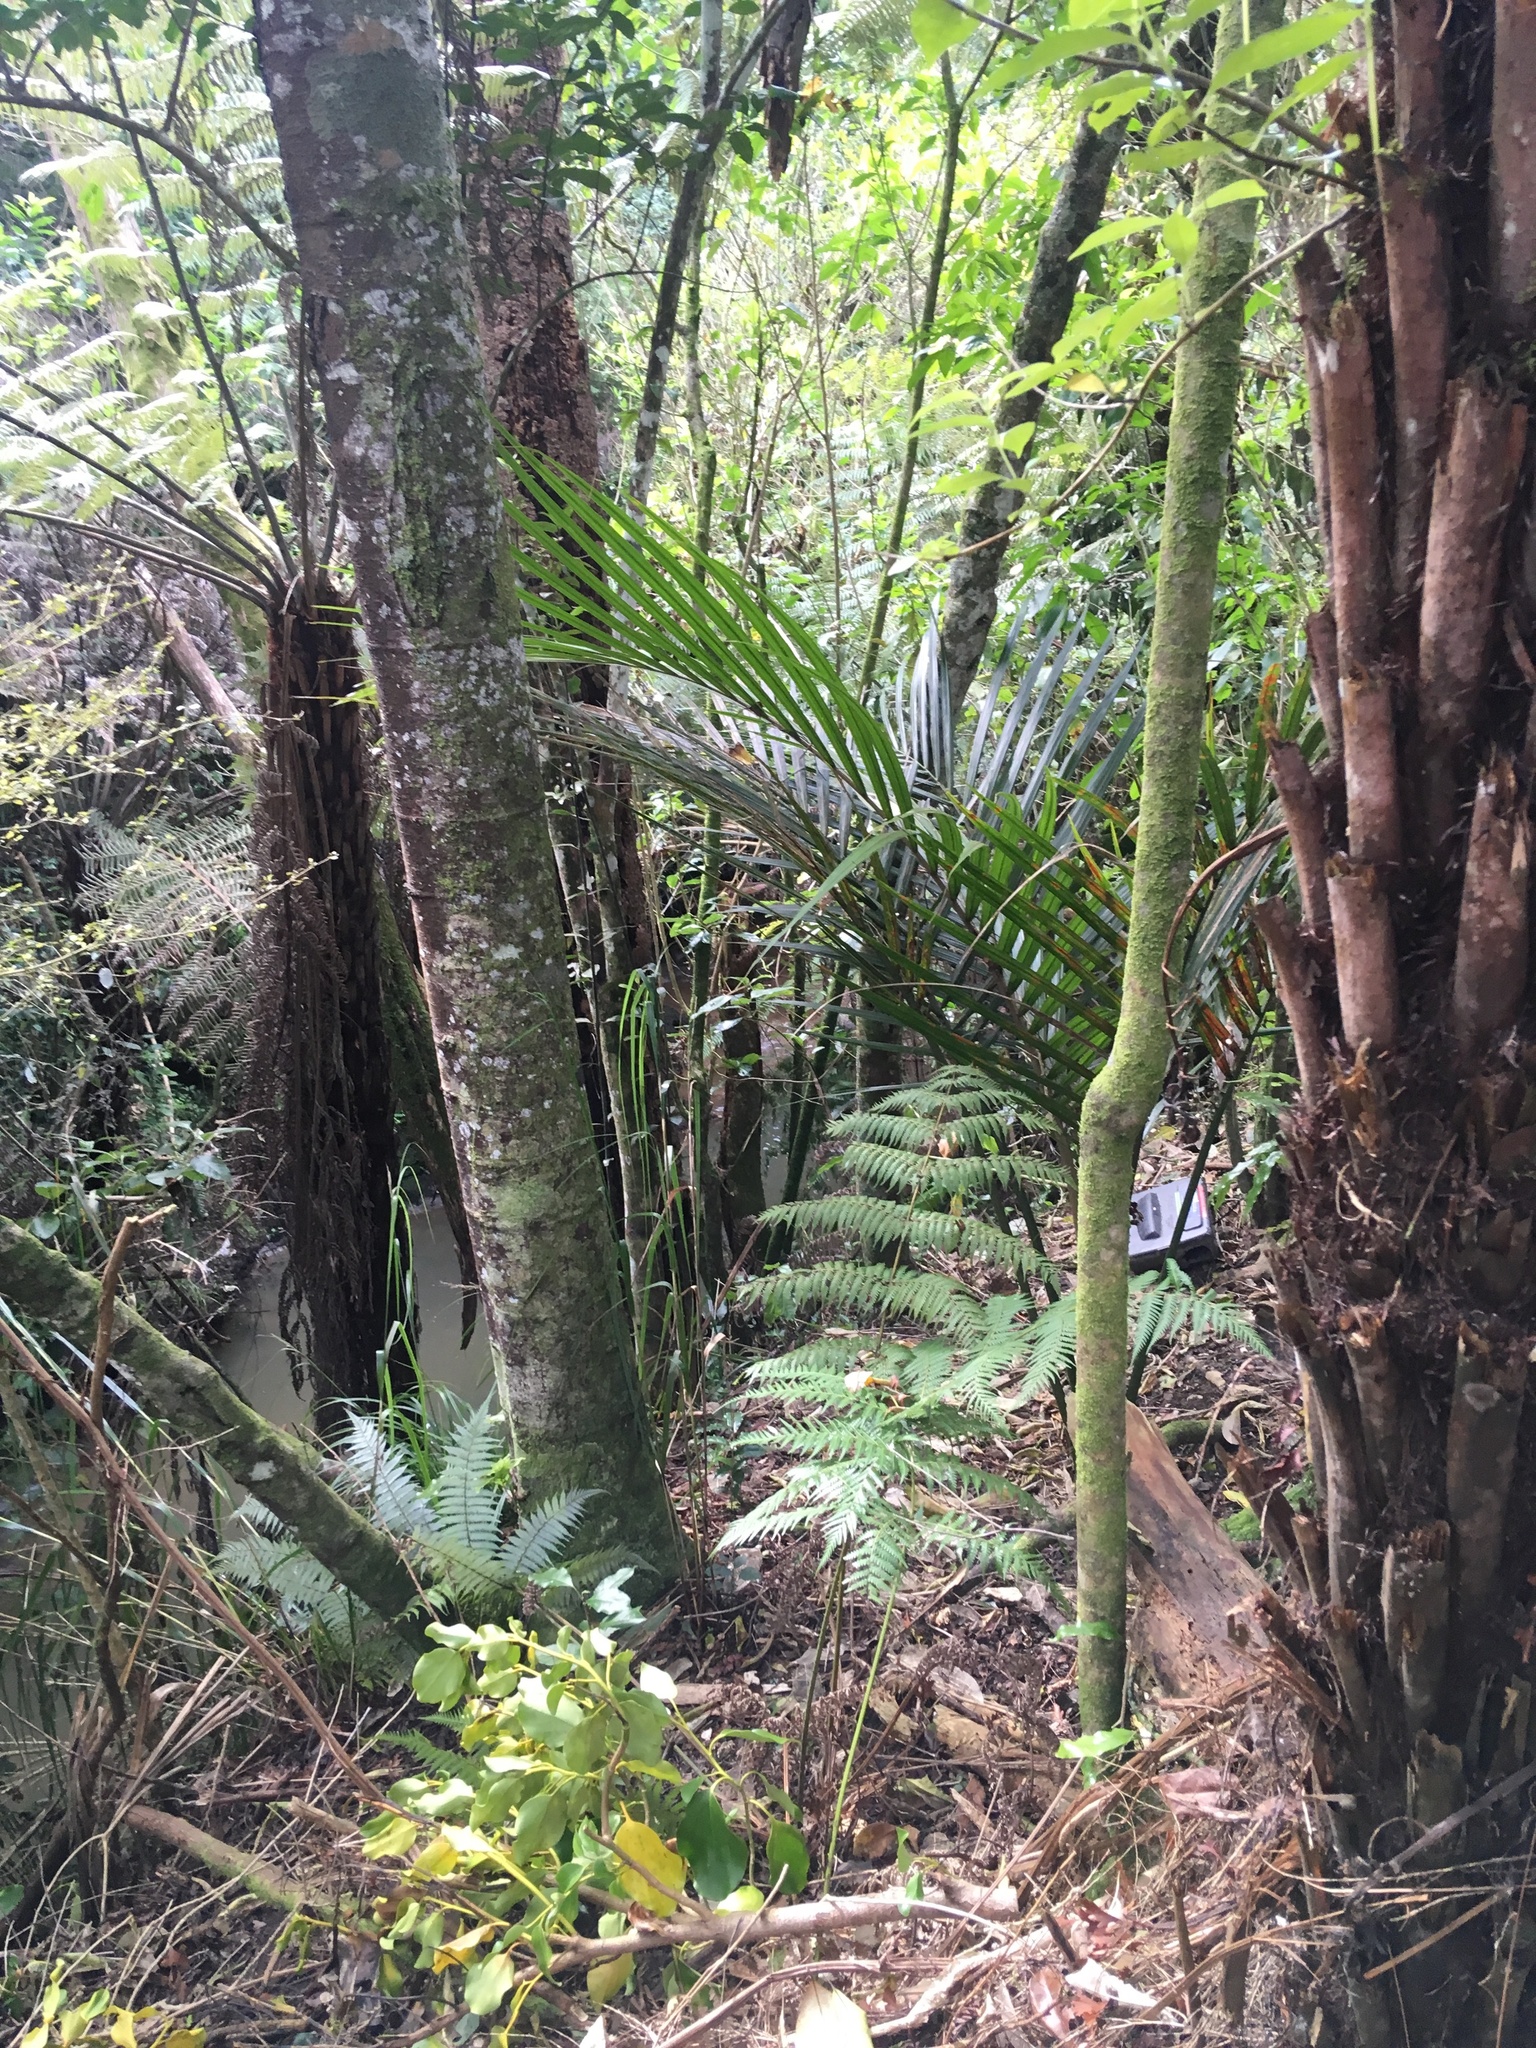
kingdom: Plantae
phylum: Tracheophyta
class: Liliopsida
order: Arecales
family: Arecaceae
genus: Rhopalostylis
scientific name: Rhopalostylis sapida
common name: Feather-duster palm
